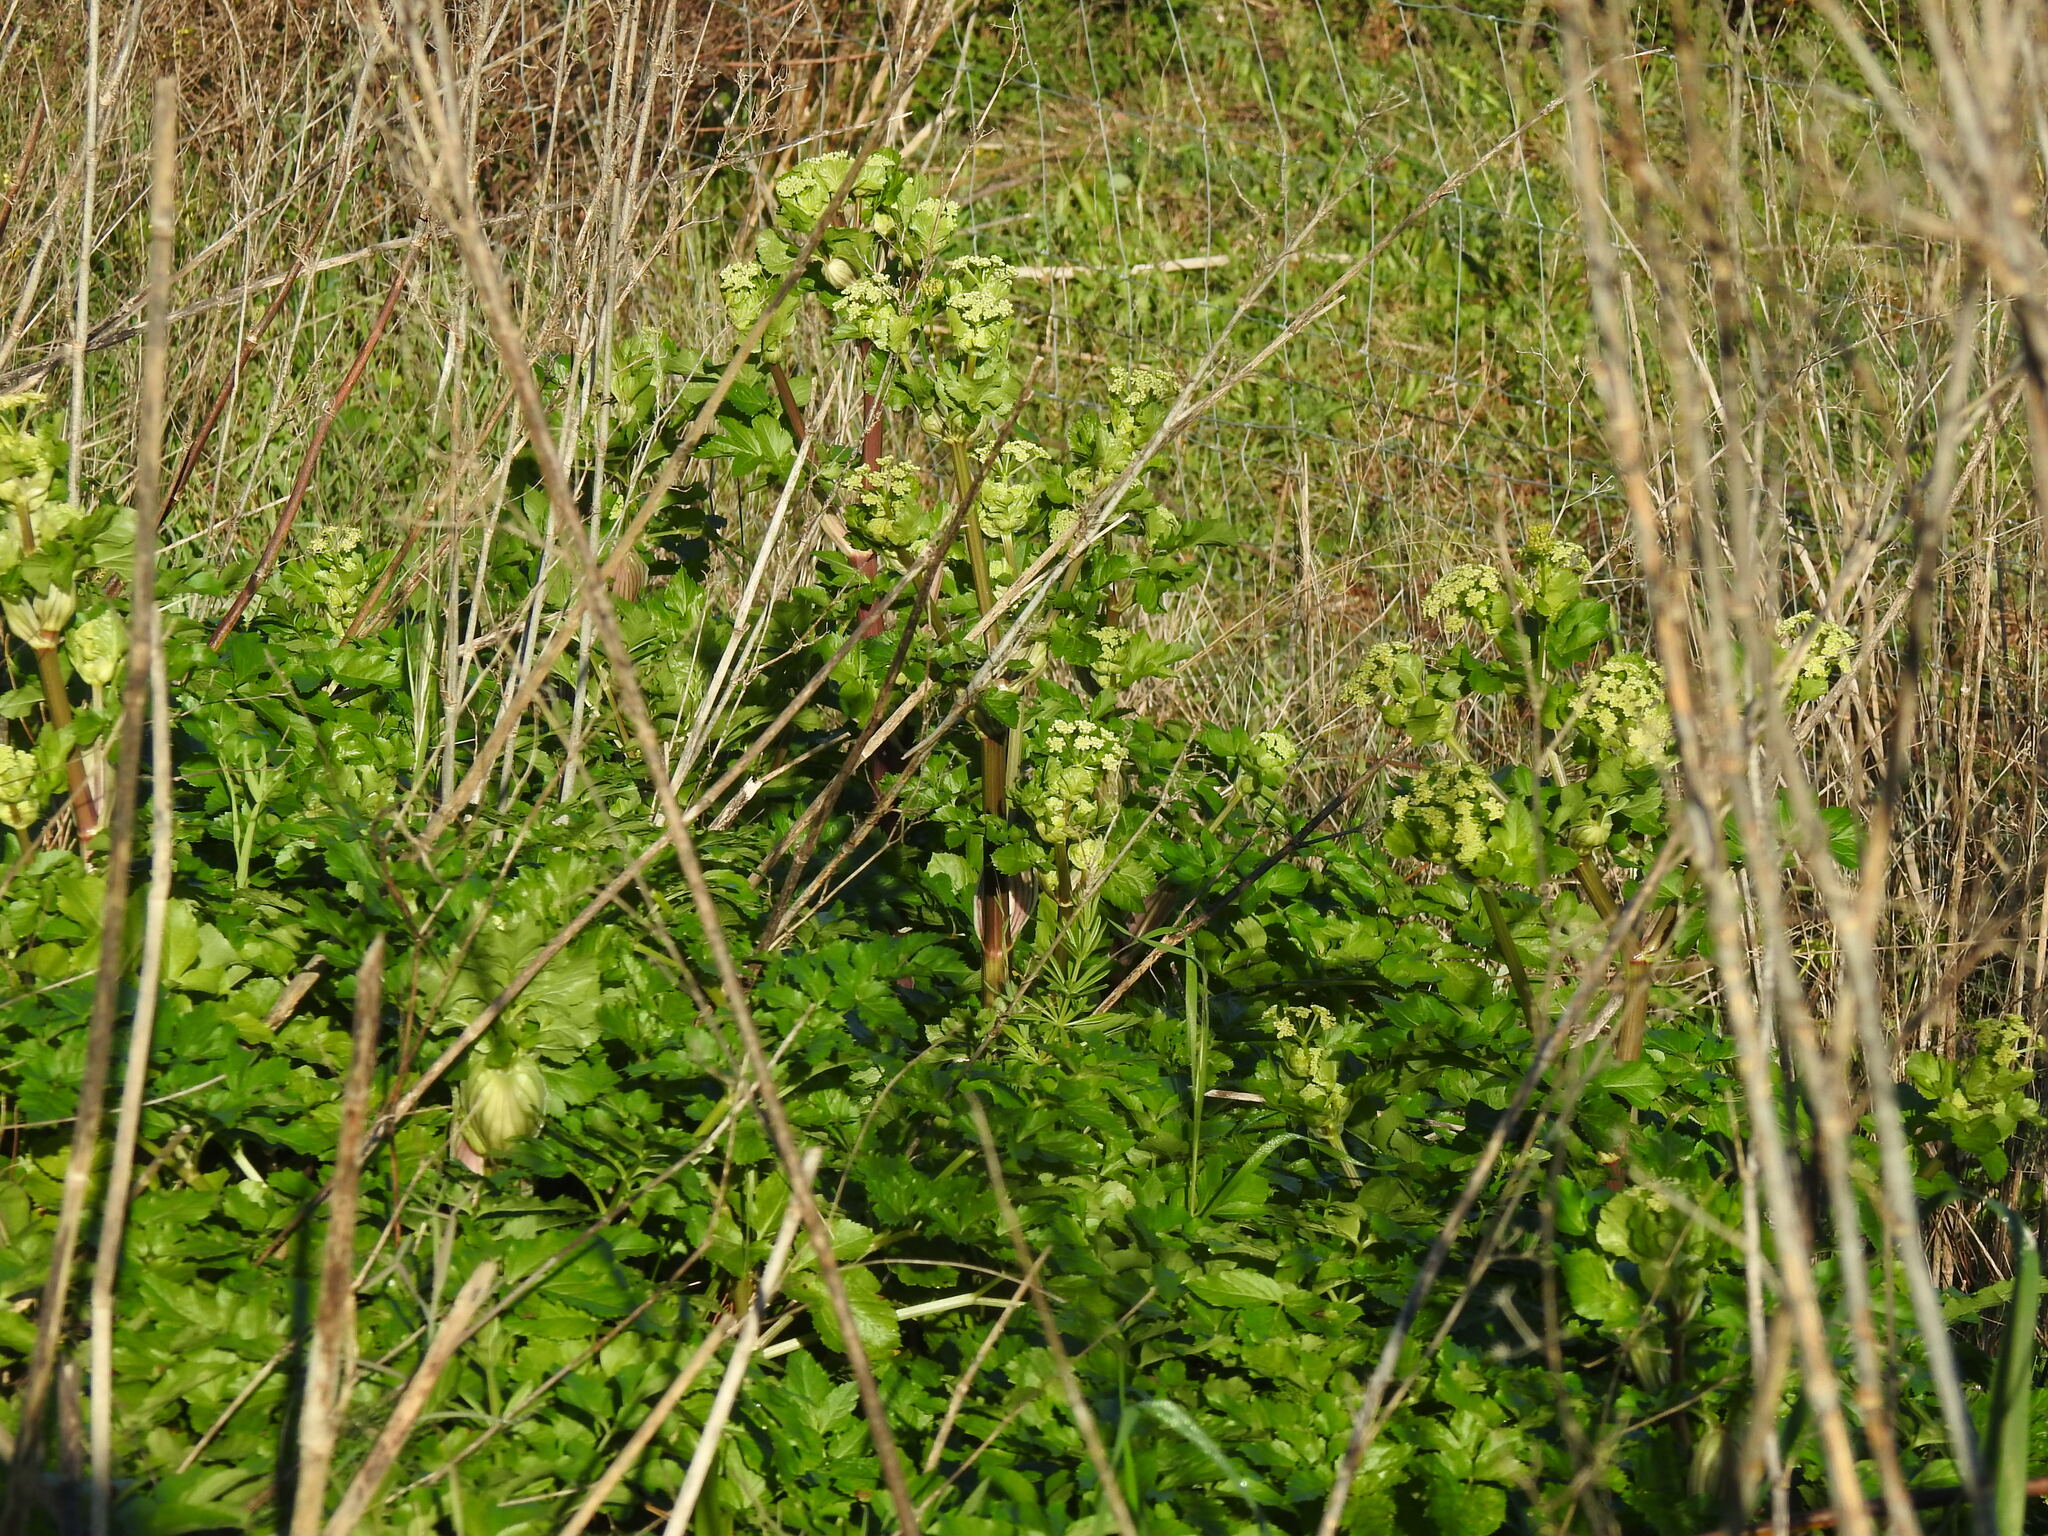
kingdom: Plantae
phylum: Tracheophyta
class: Magnoliopsida
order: Apiales
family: Apiaceae
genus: Smyrnium
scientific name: Smyrnium olusatrum
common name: Alexanders
